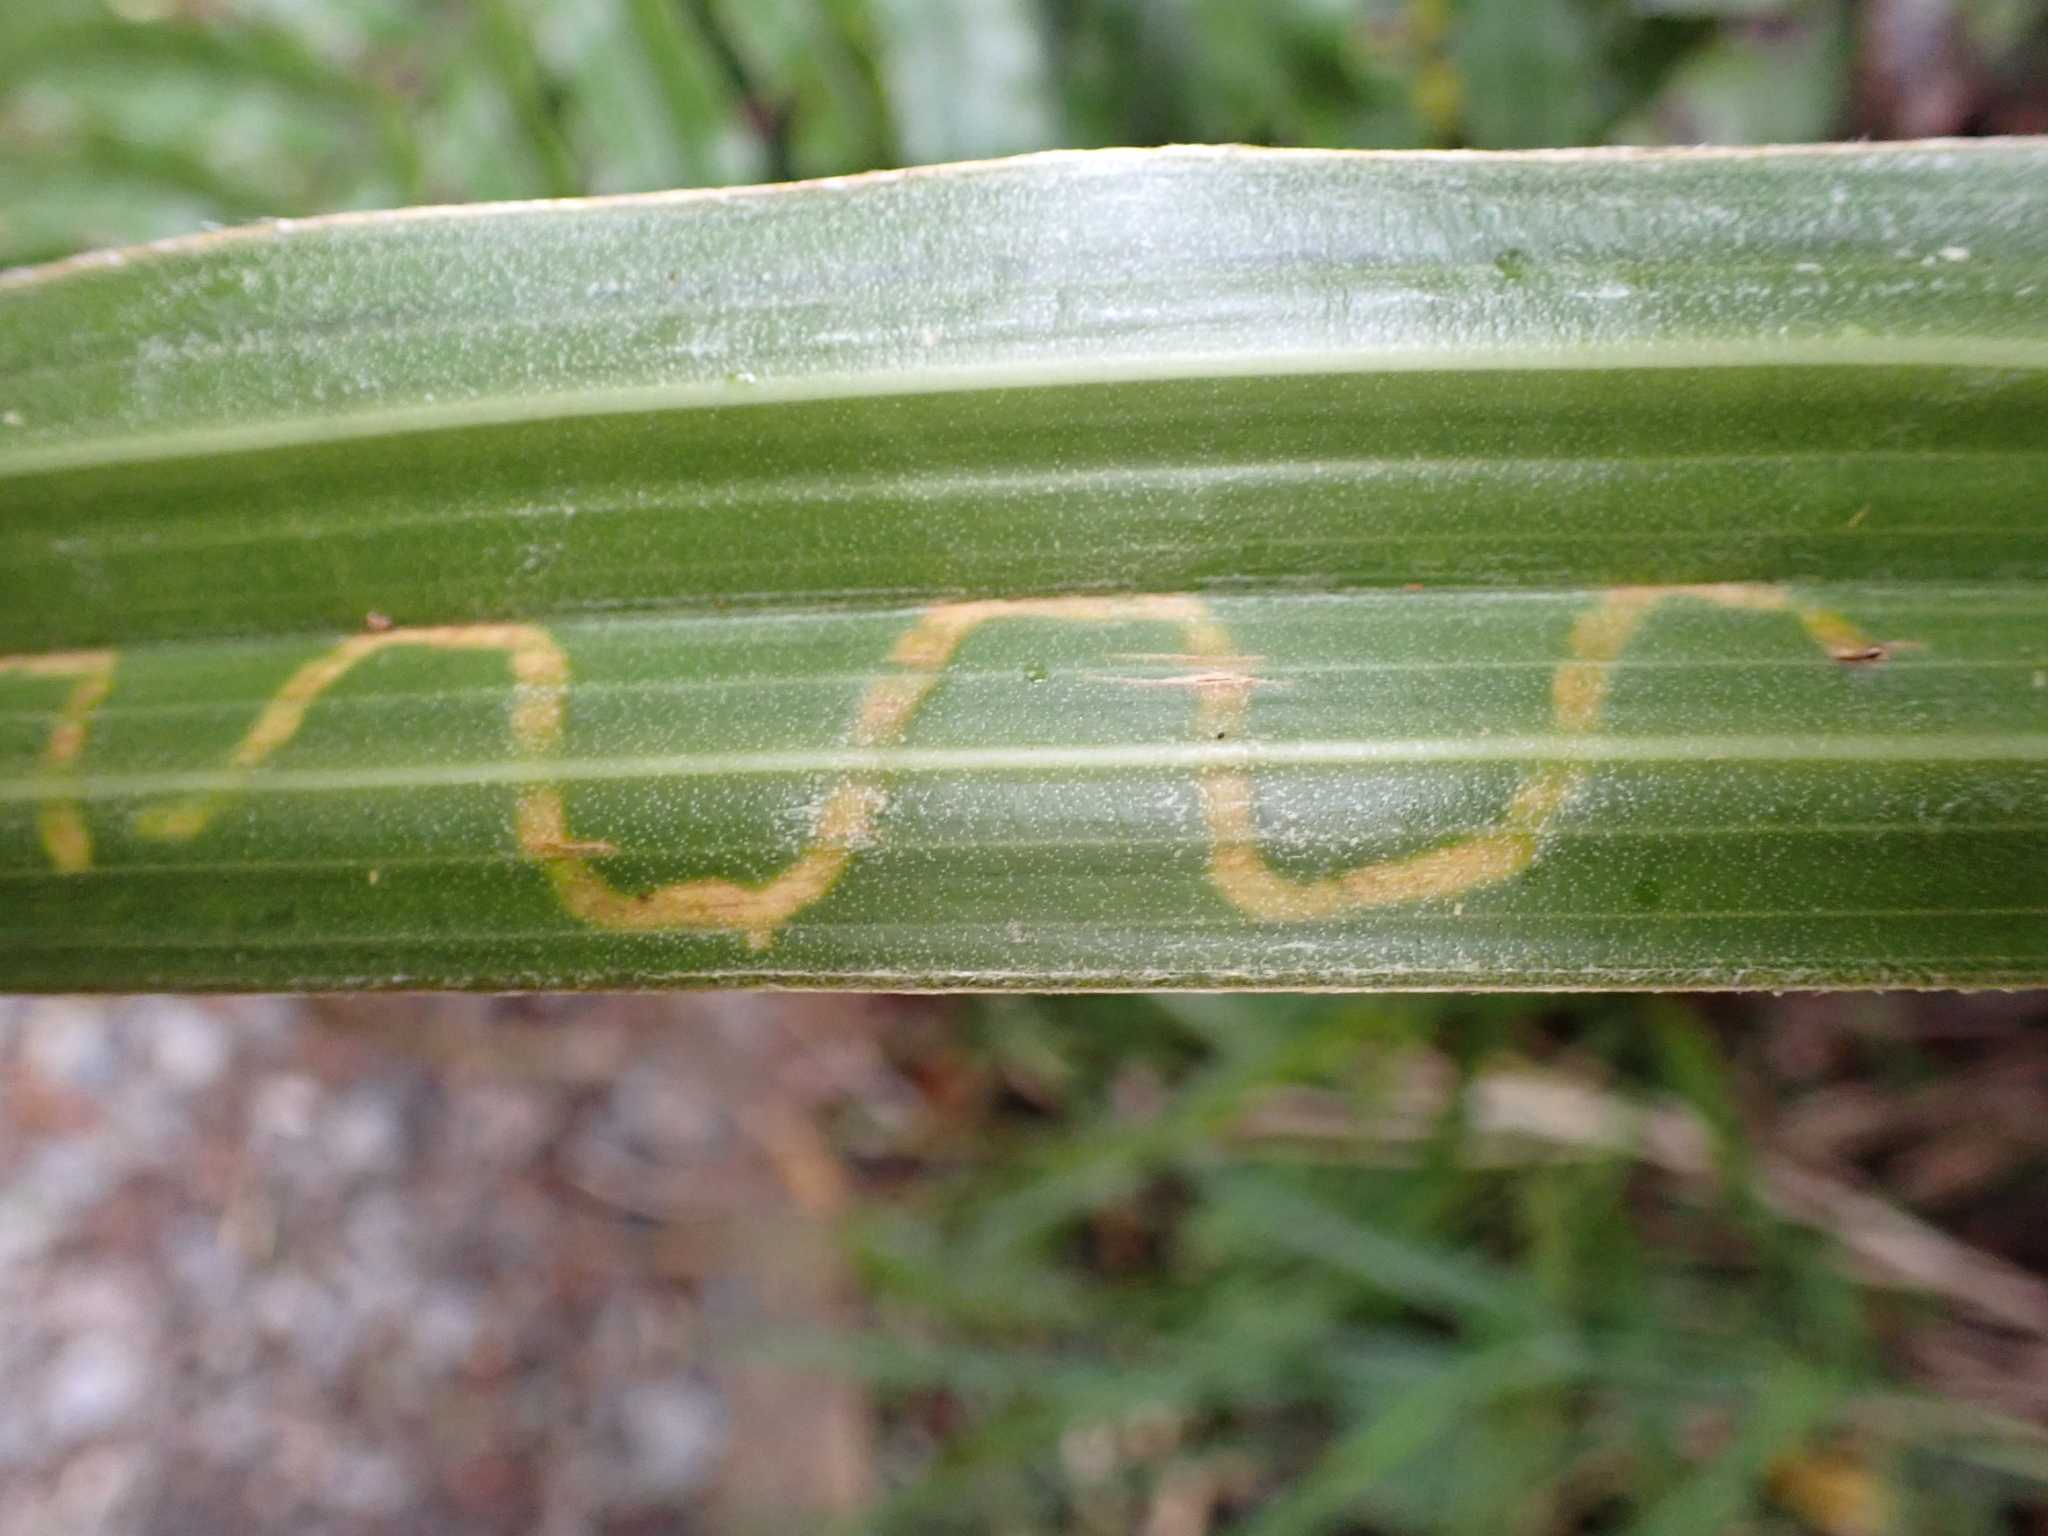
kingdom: Animalia
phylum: Arthropoda
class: Insecta
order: Lepidoptera
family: Plutellidae
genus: Charixena
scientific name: Charixena iridoxa
